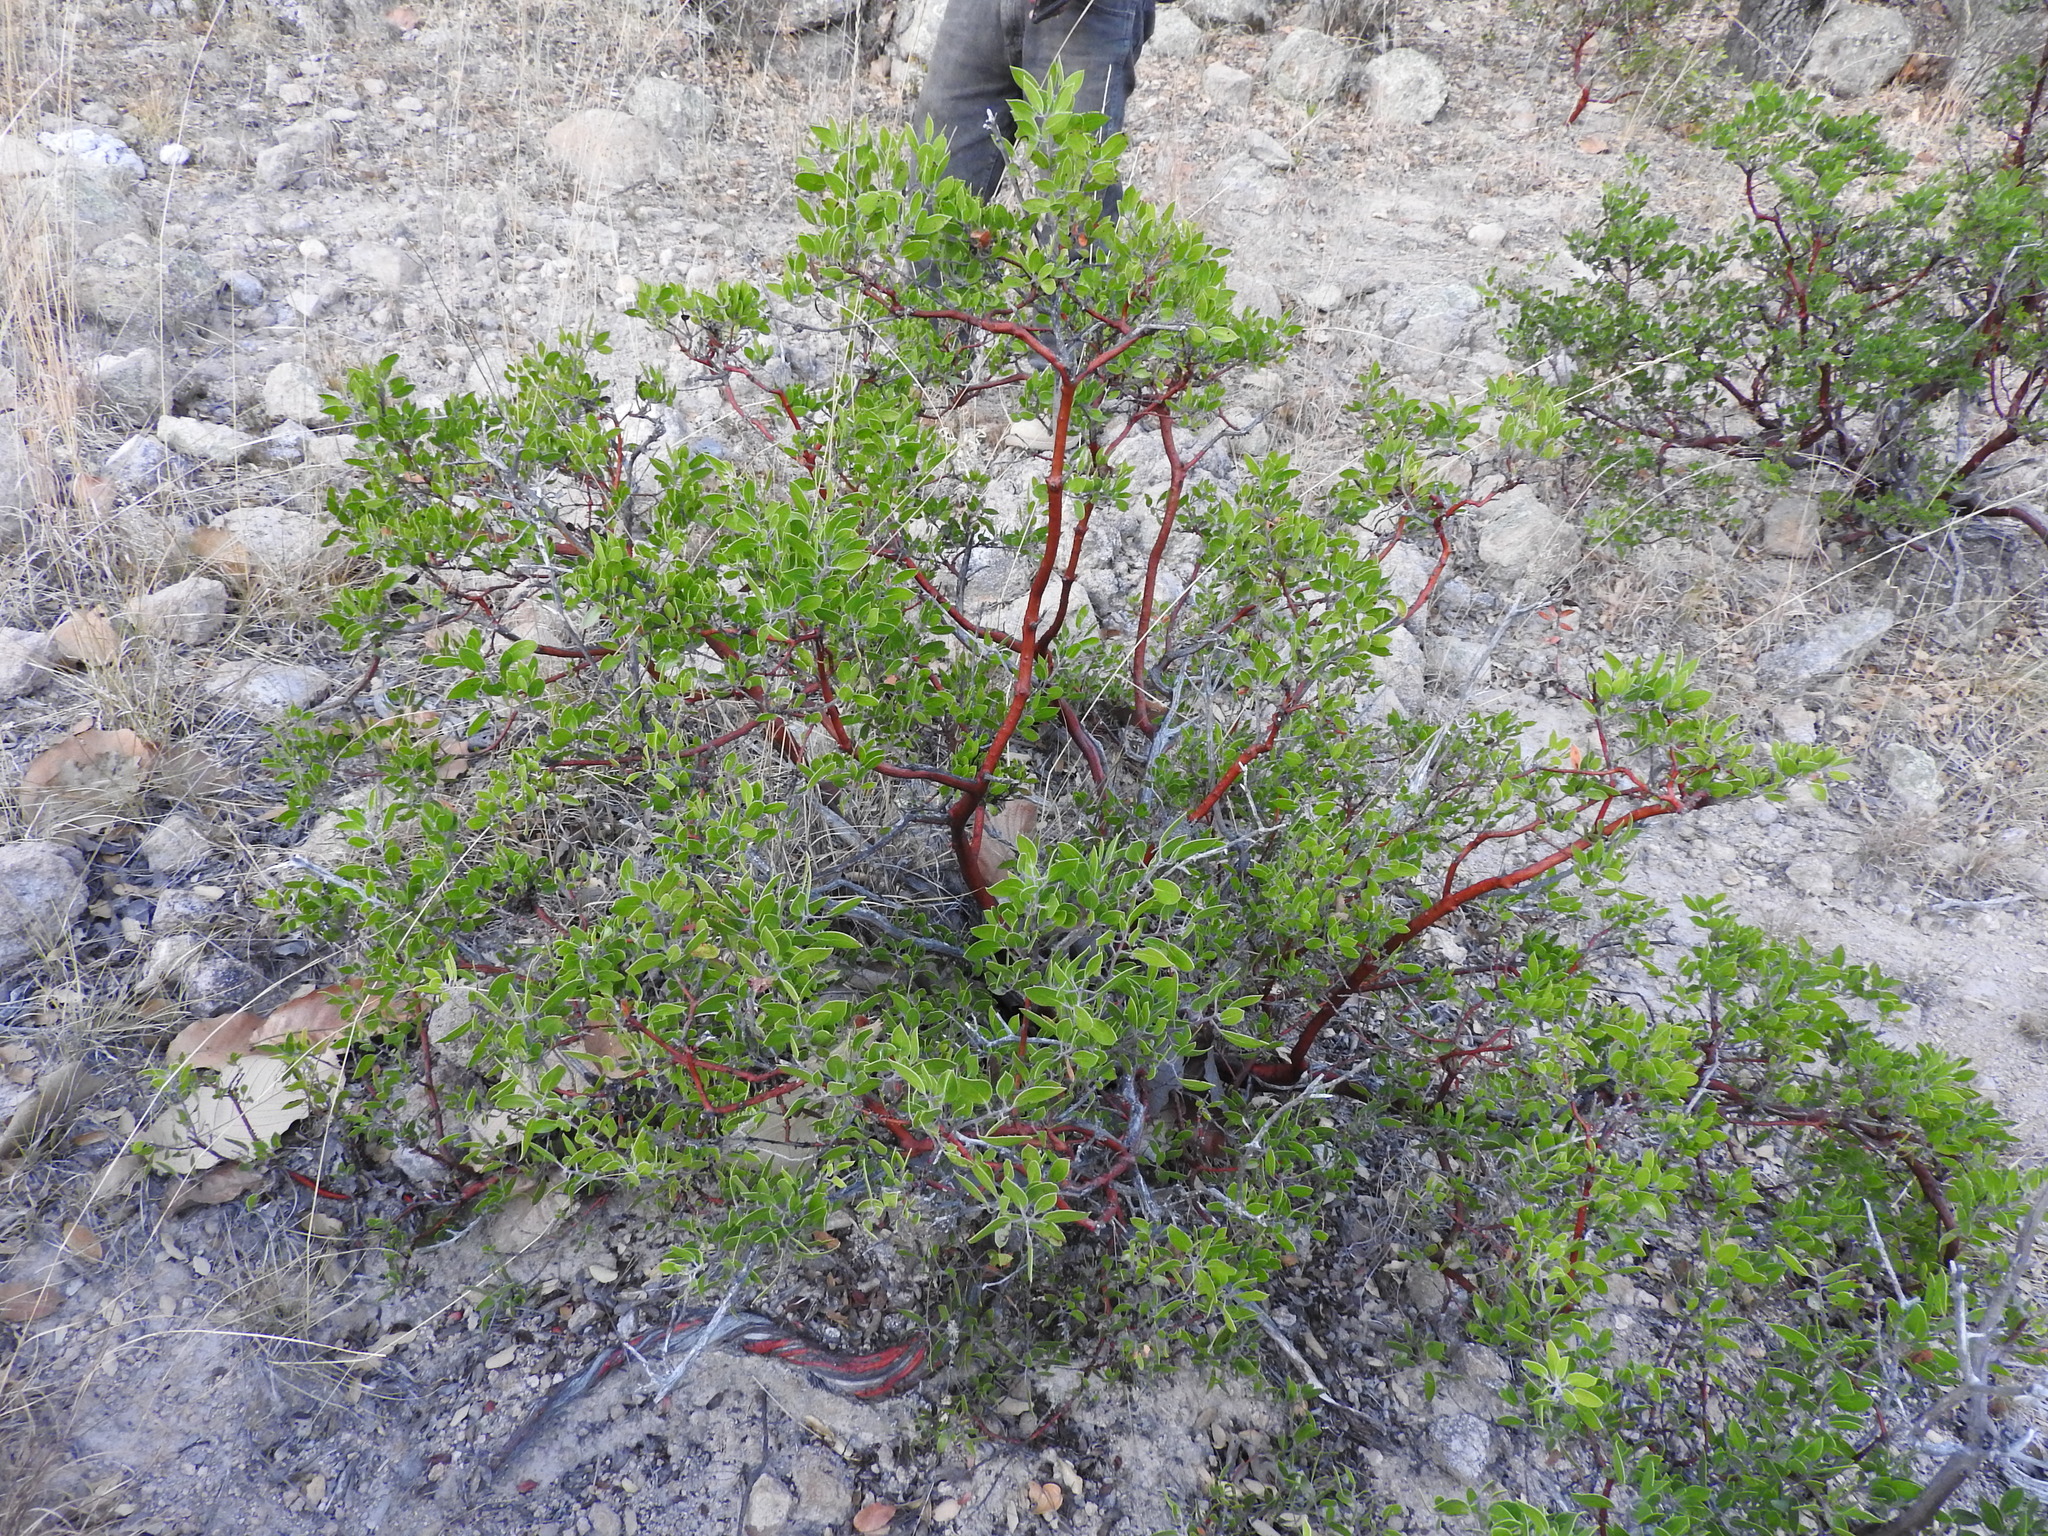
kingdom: Plantae
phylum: Tracheophyta
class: Magnoliopsida
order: Ericales
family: Ericaceae
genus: Arctostaphylos
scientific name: Arctostaphylos pungens
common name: Mexican manzanita
